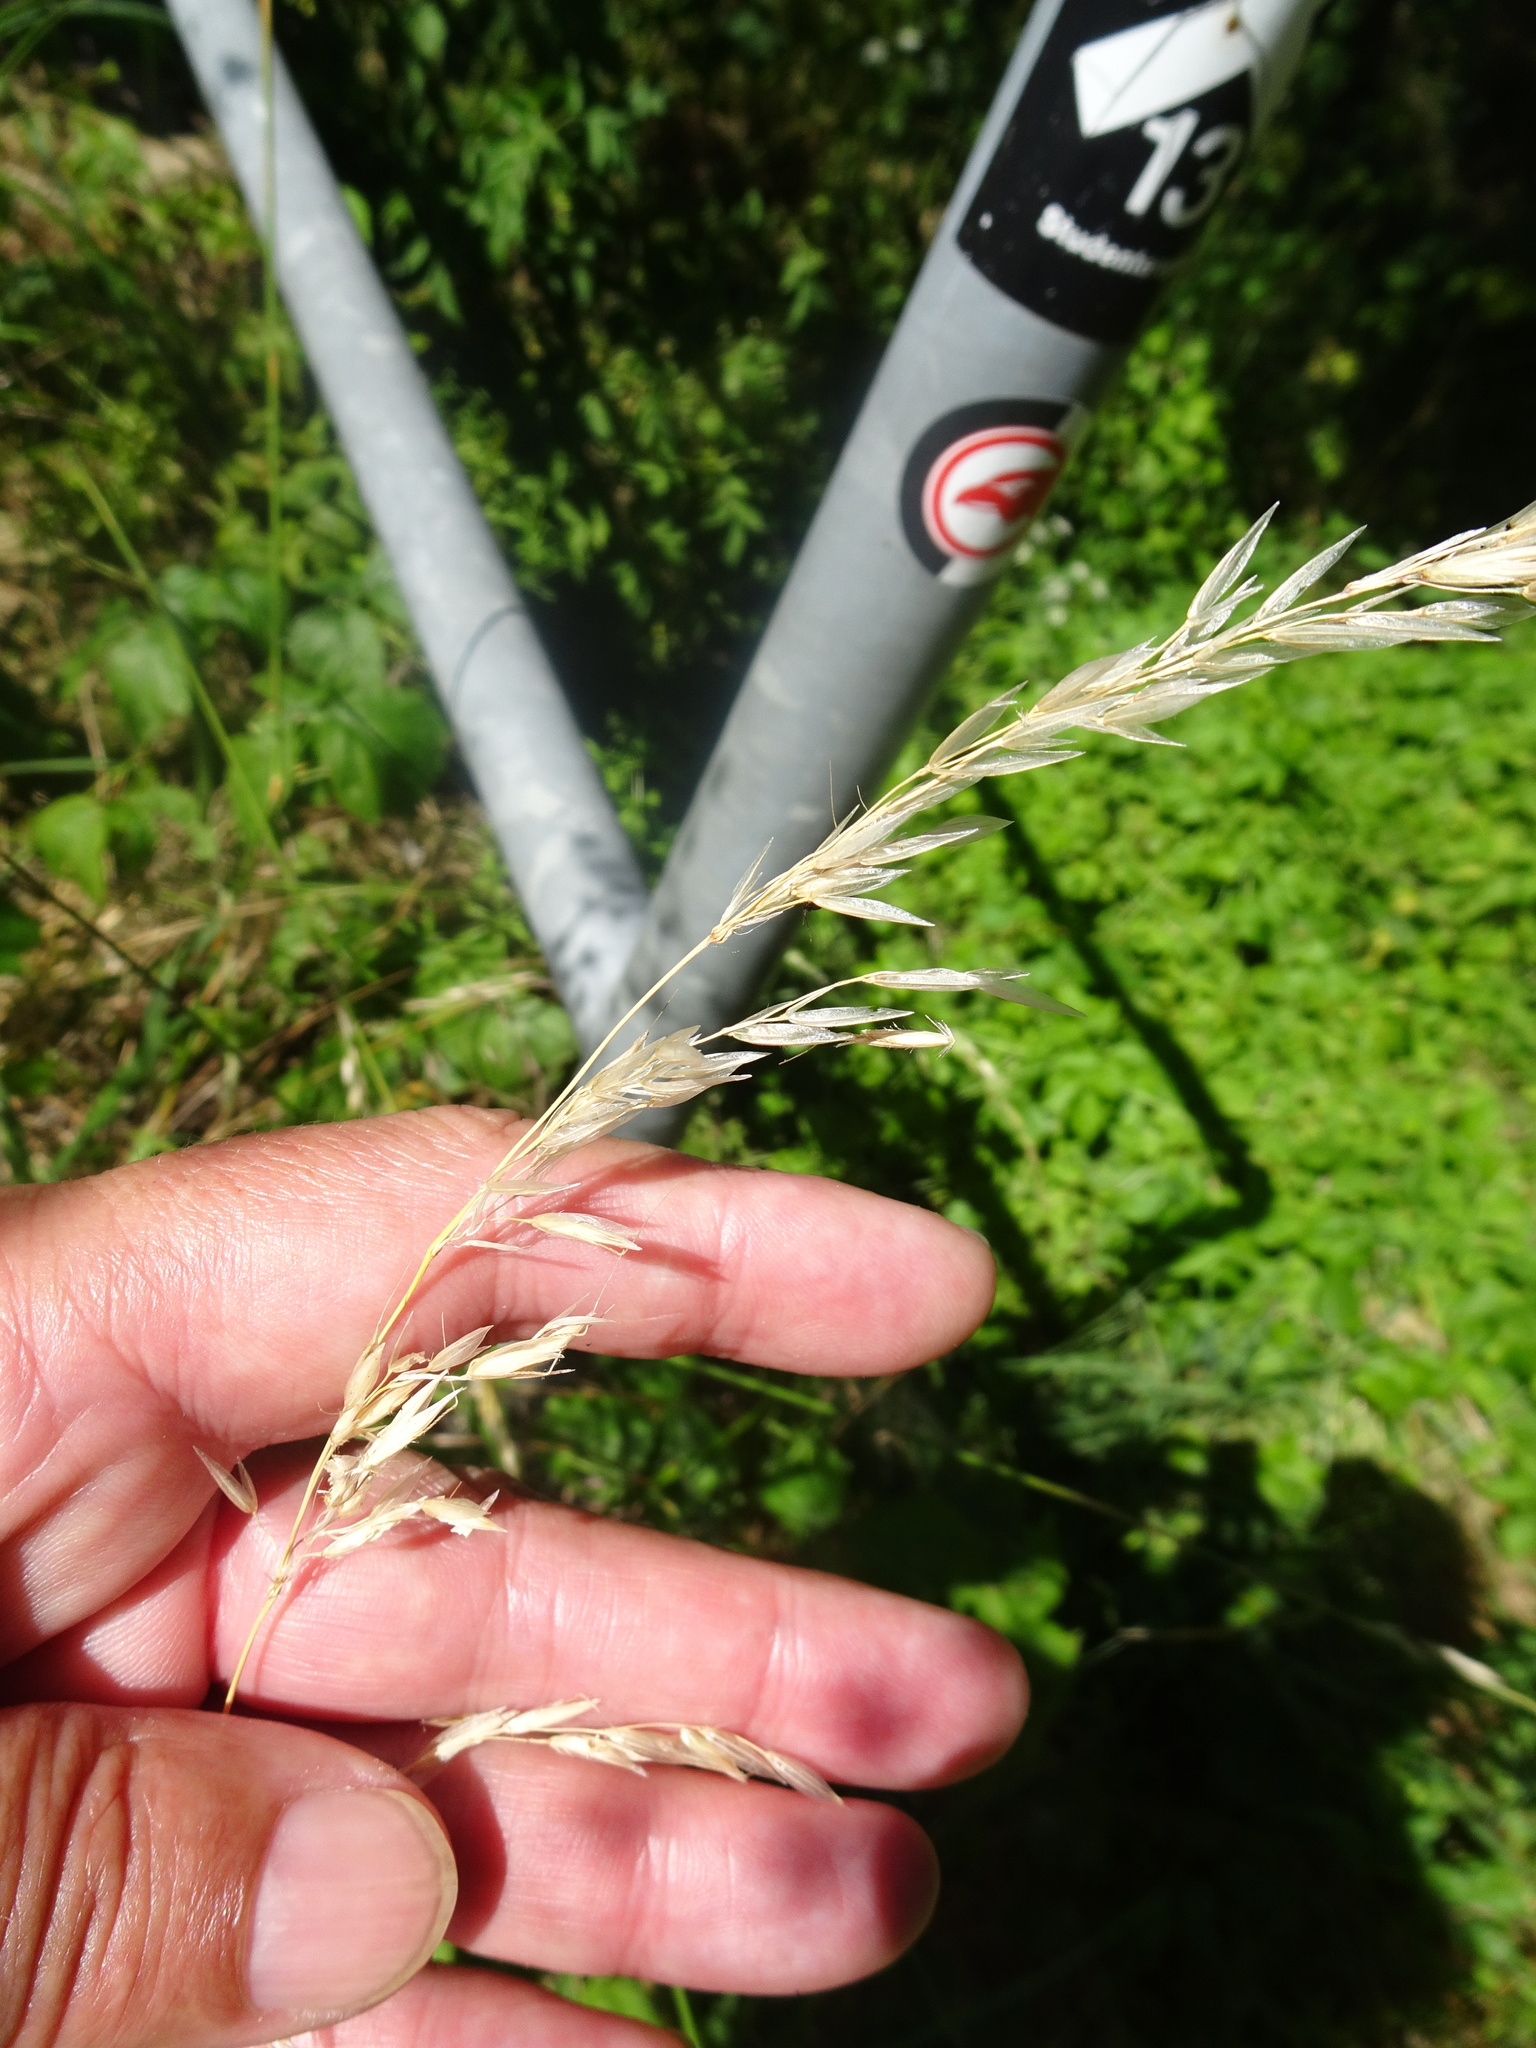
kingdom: Plantae
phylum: Tracheophyta
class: Liliopsida
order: Poales
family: Poaceae
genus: Arrhenatherum
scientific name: Arrhenatherum elatius
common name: Tall oatgrass
